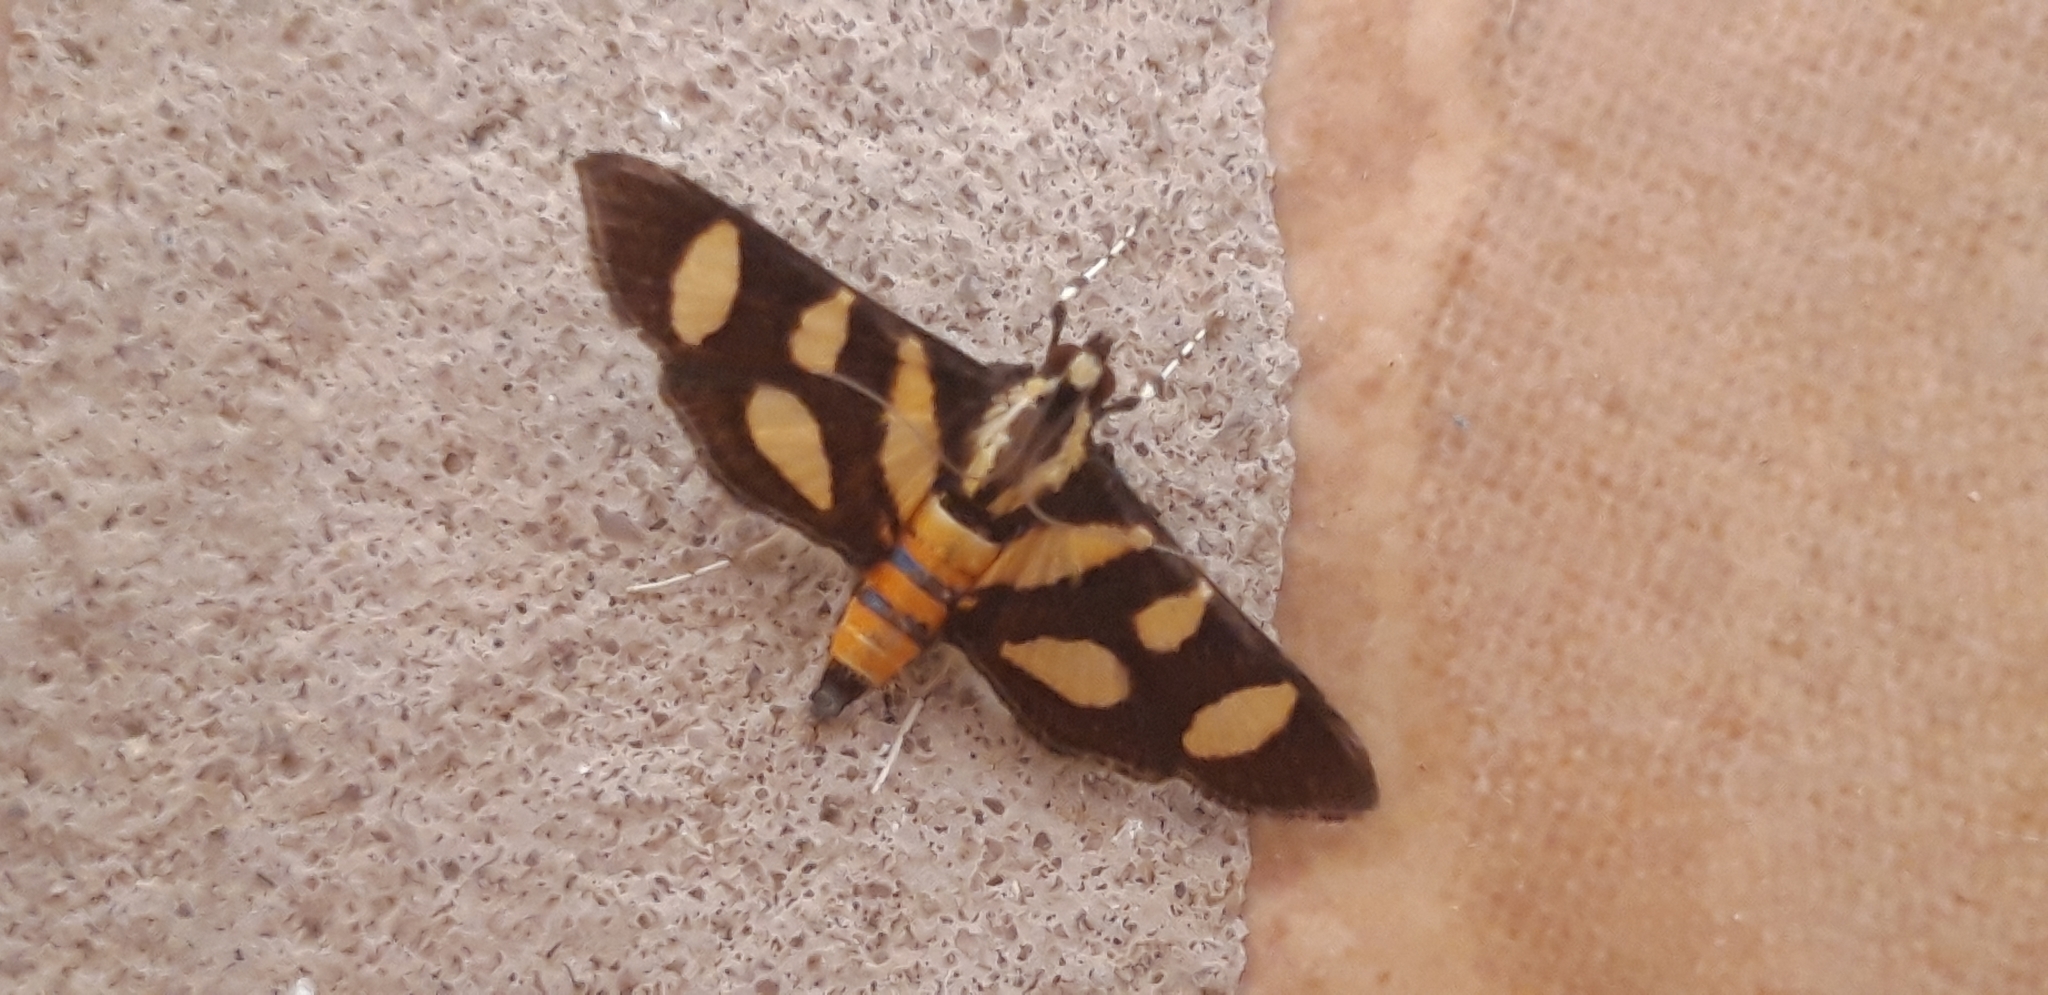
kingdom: Animalia
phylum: Arthropoda
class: Insecta
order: Lepidoptera
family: Crambidae
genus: Syngamia
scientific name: Syngamia florella
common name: Orange-spotted flower moth
